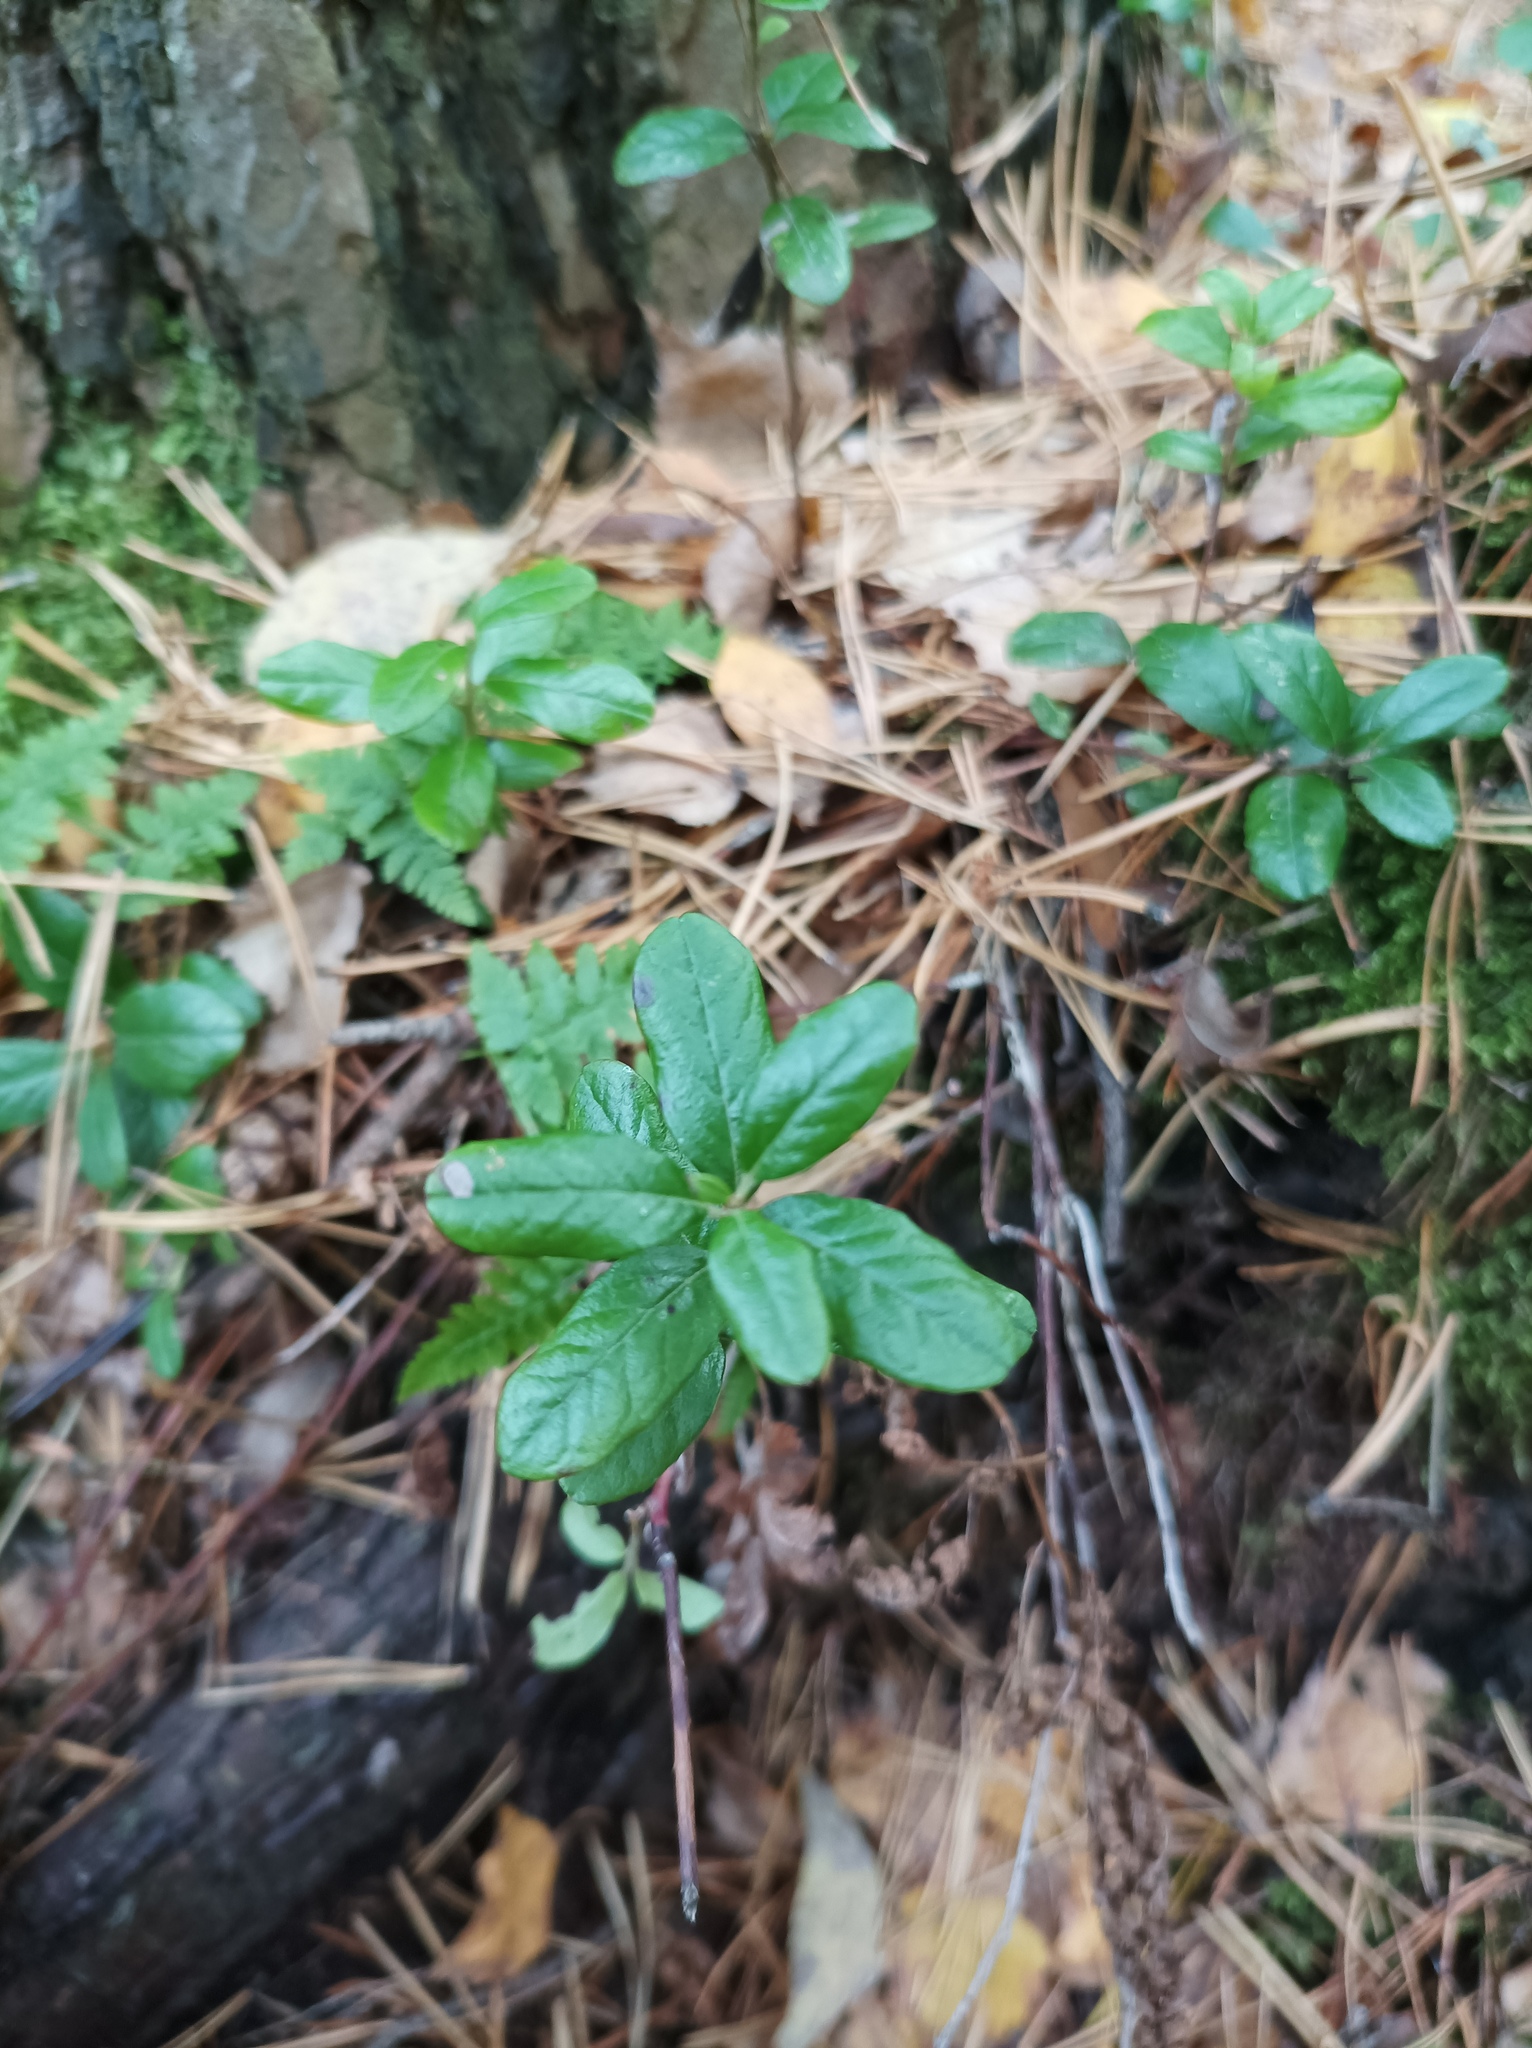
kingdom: Plantae
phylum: Tracheophyta
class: Magnoliopsida
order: Ericales
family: Ericaceae
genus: Vaccinium
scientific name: Vaccinium vitis-idaea
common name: Cowberry
